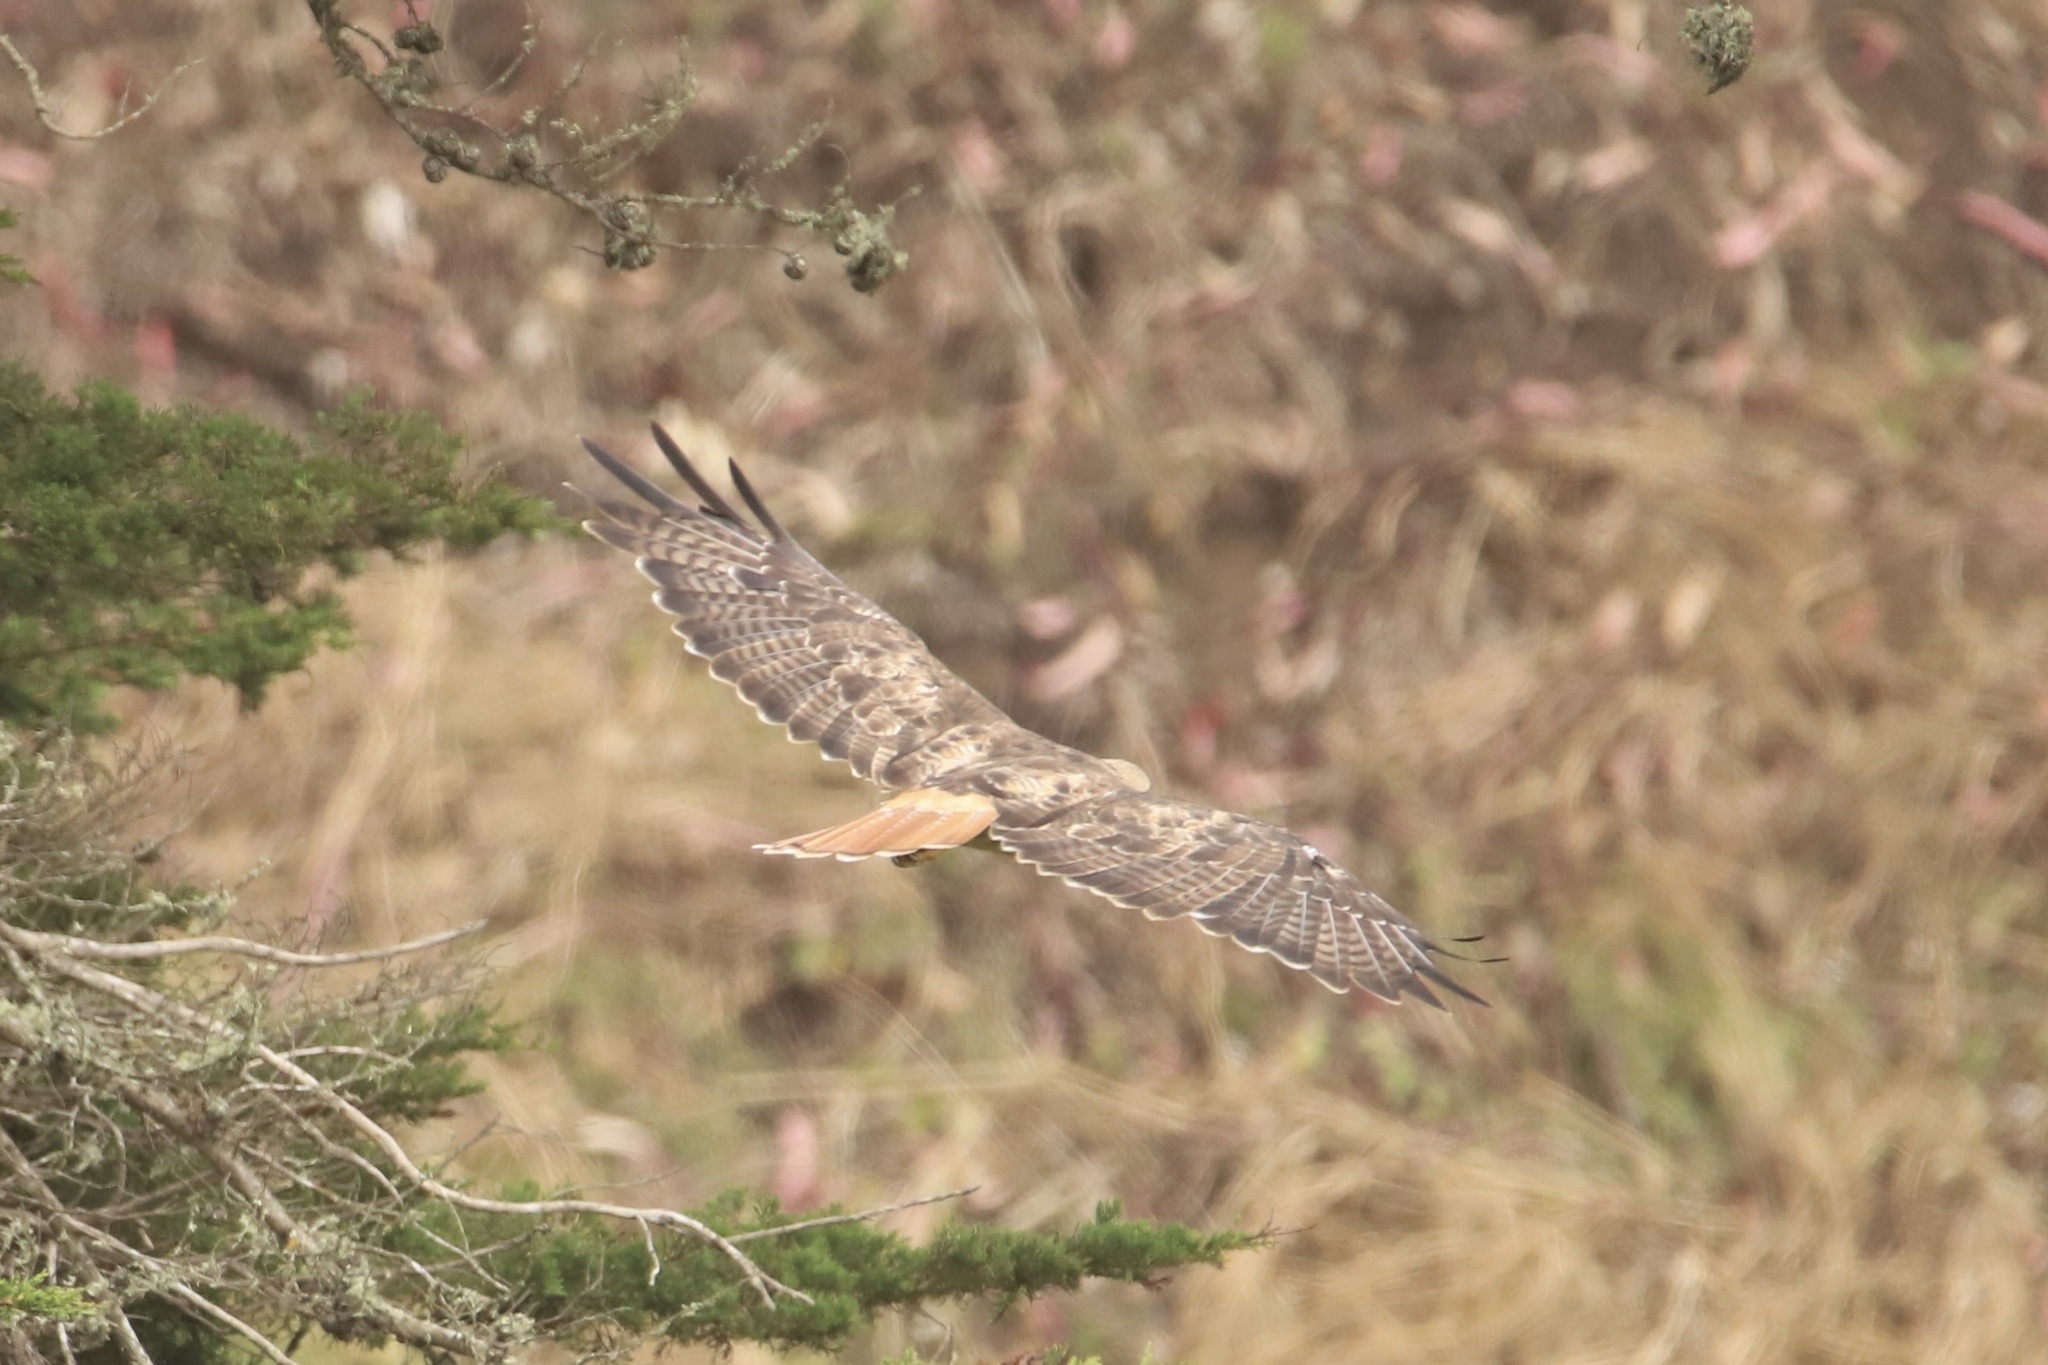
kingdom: Animalia
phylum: Chordata
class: Aves
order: Accipitriformes
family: Accipitridae
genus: Buteo
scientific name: Buteo jamaicensis
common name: Red-tailed hawk
